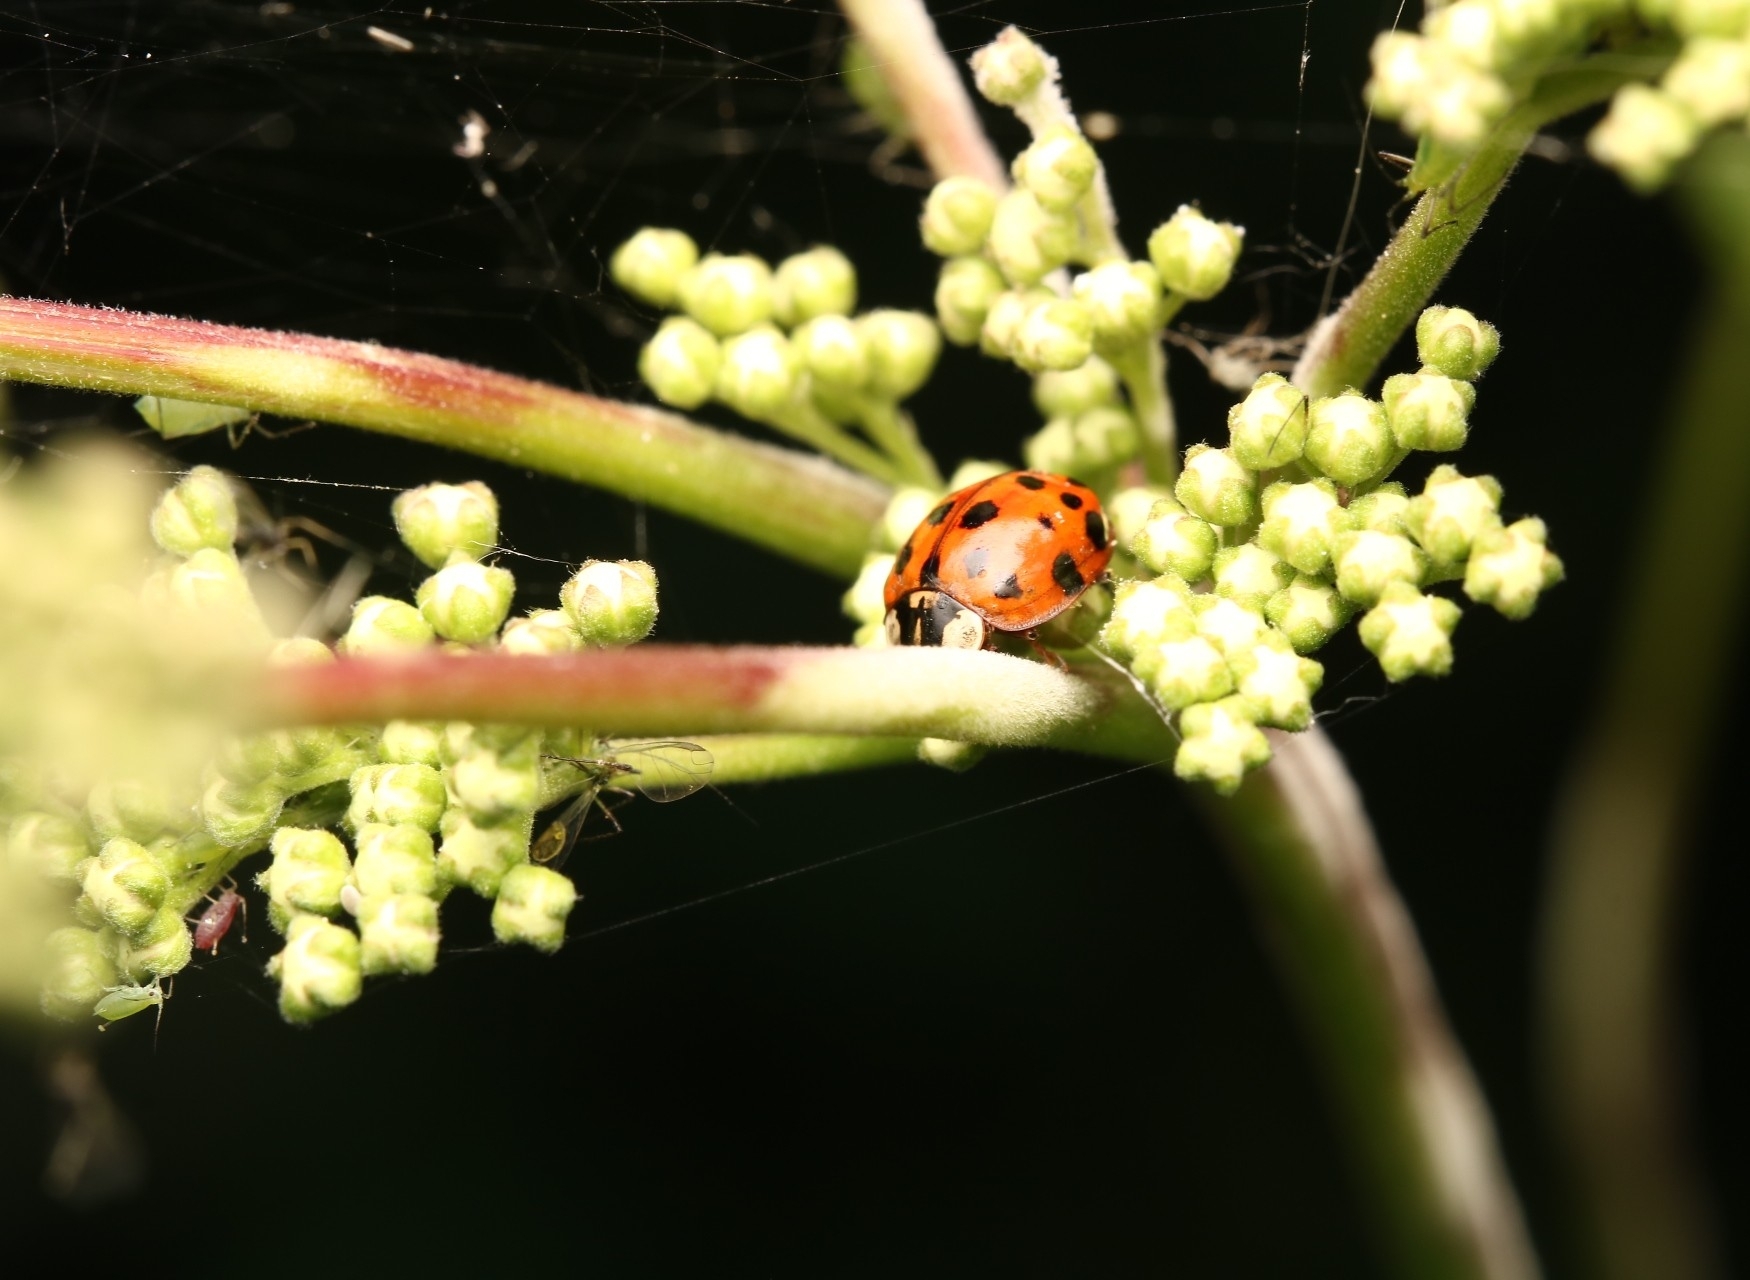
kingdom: Animalia
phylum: Arthropoda
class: Insecta
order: Coleoptera
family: Coccinellidae
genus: Harmonia
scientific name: Harmonia axyridis
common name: Harlequin ladybird
